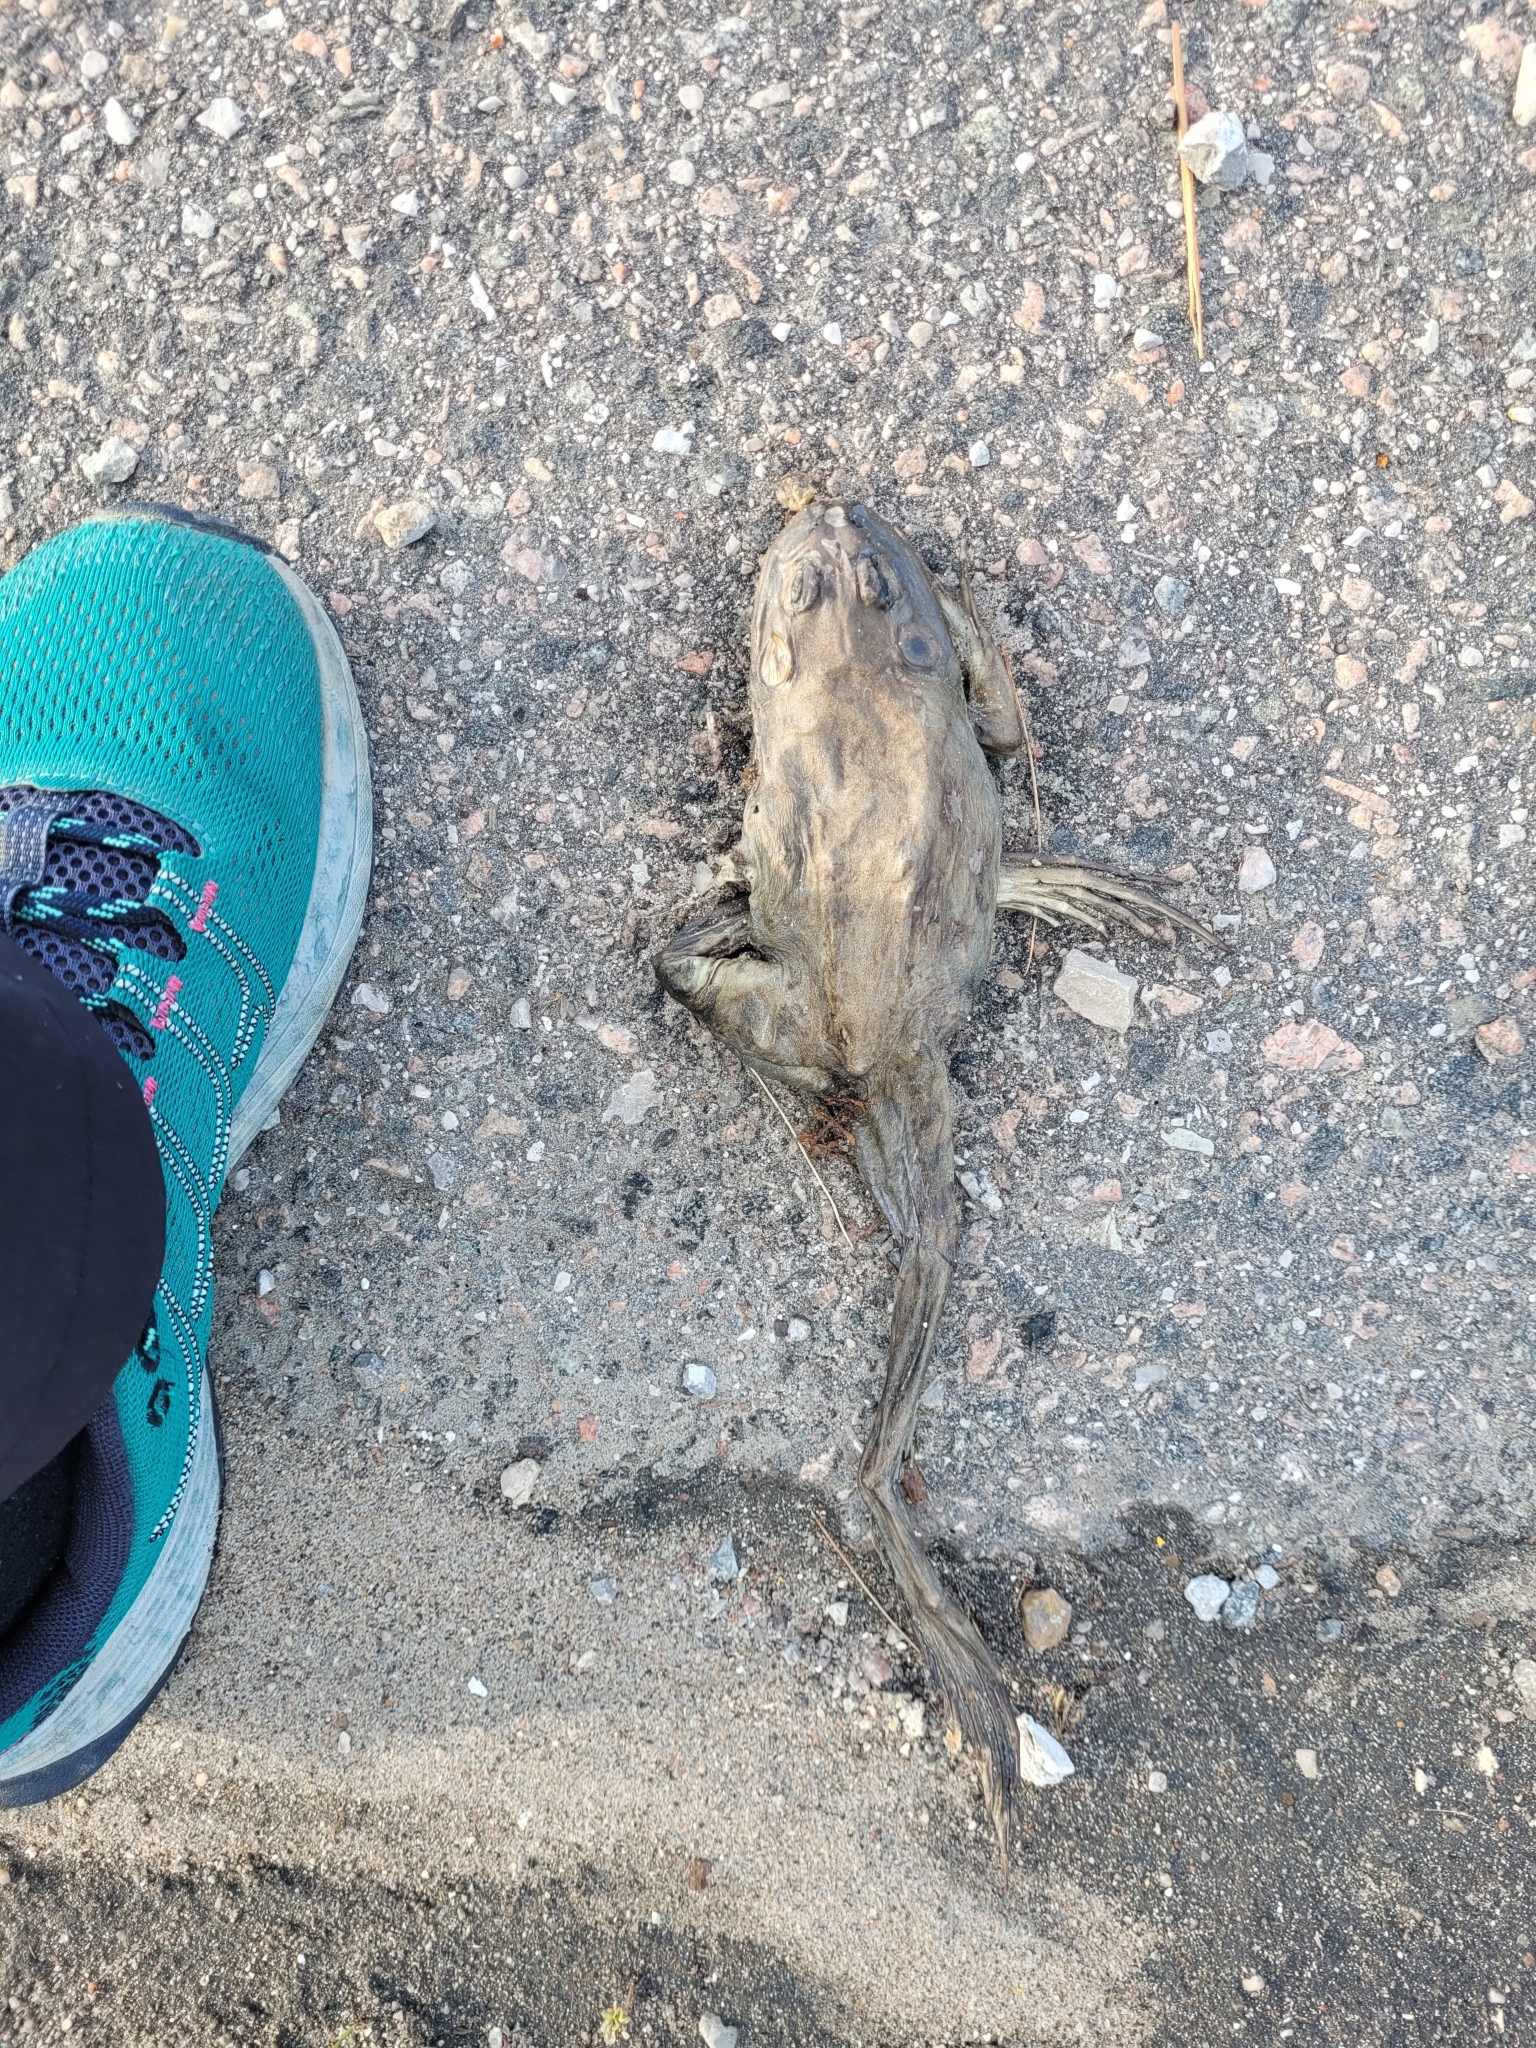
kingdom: Animalia
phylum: Chordata
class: Amphibia
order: Anura
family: Ranidae
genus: Lithobates
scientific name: Lithobates catesbeianus
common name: American bullfrog
